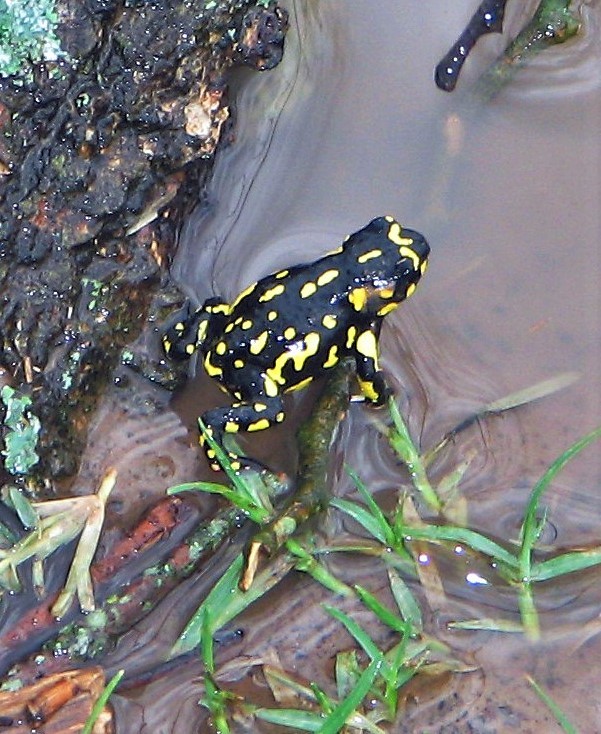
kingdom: Animalia
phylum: Chordata
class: Amphibia
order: Anura
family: Bufonidae
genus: Melanophryniscus
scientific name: Melanophryniscus klappenbachi
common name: Klappenbach’s red-bellied toad
